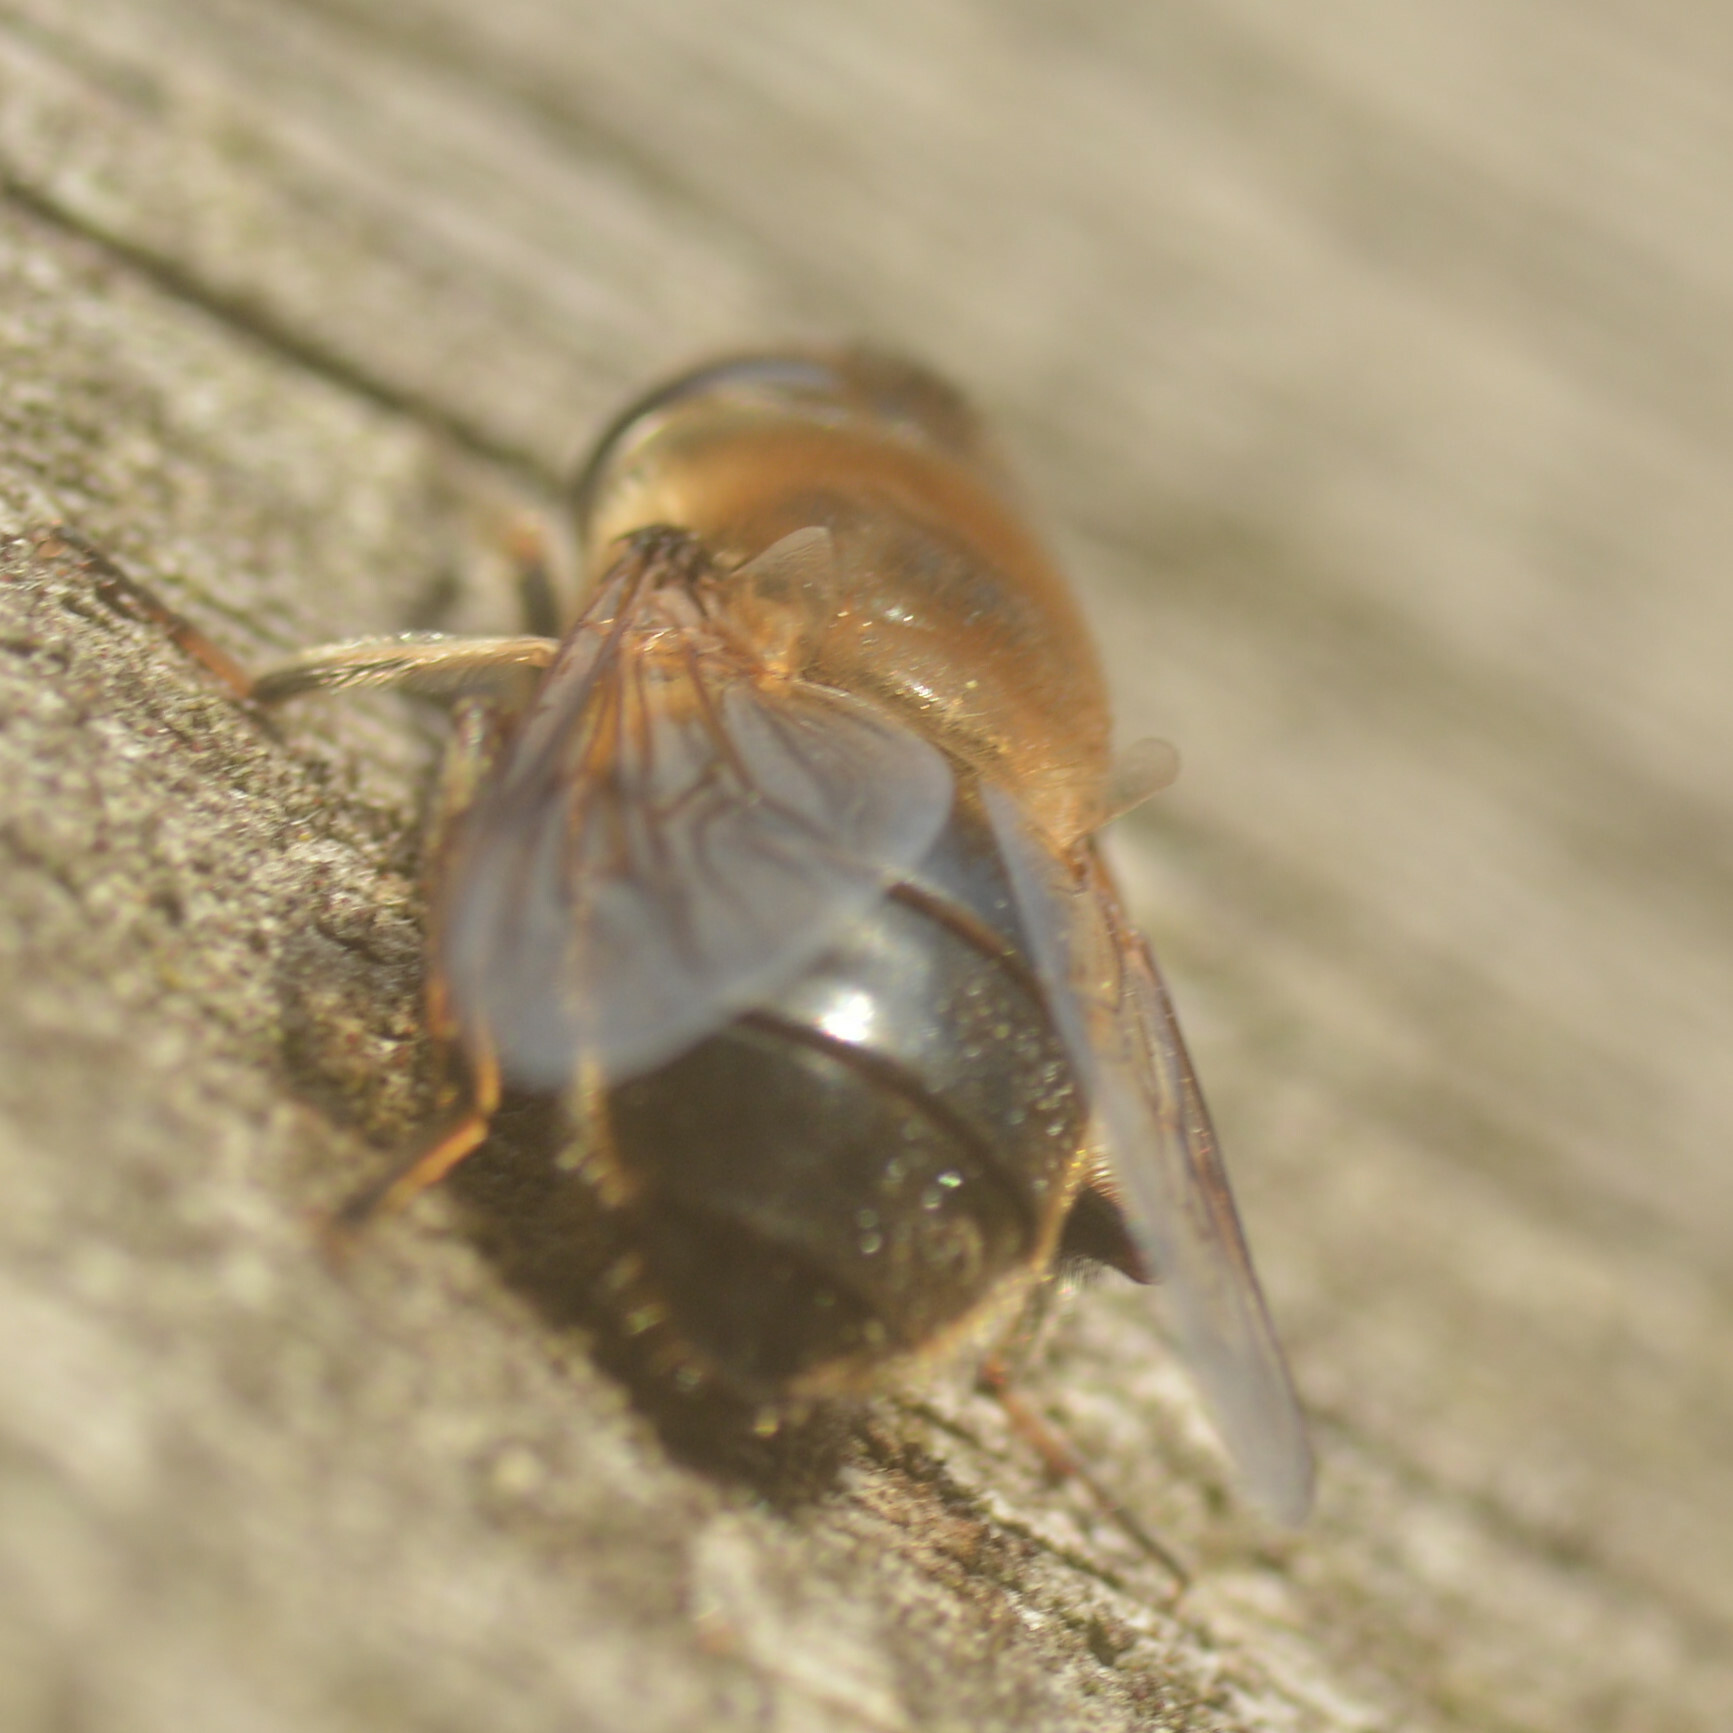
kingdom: Animalia
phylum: Arthropoda
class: Insecta
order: Diptera
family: Syrphidae
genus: Eristalis
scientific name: Eristalis tenax
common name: Drone fly
